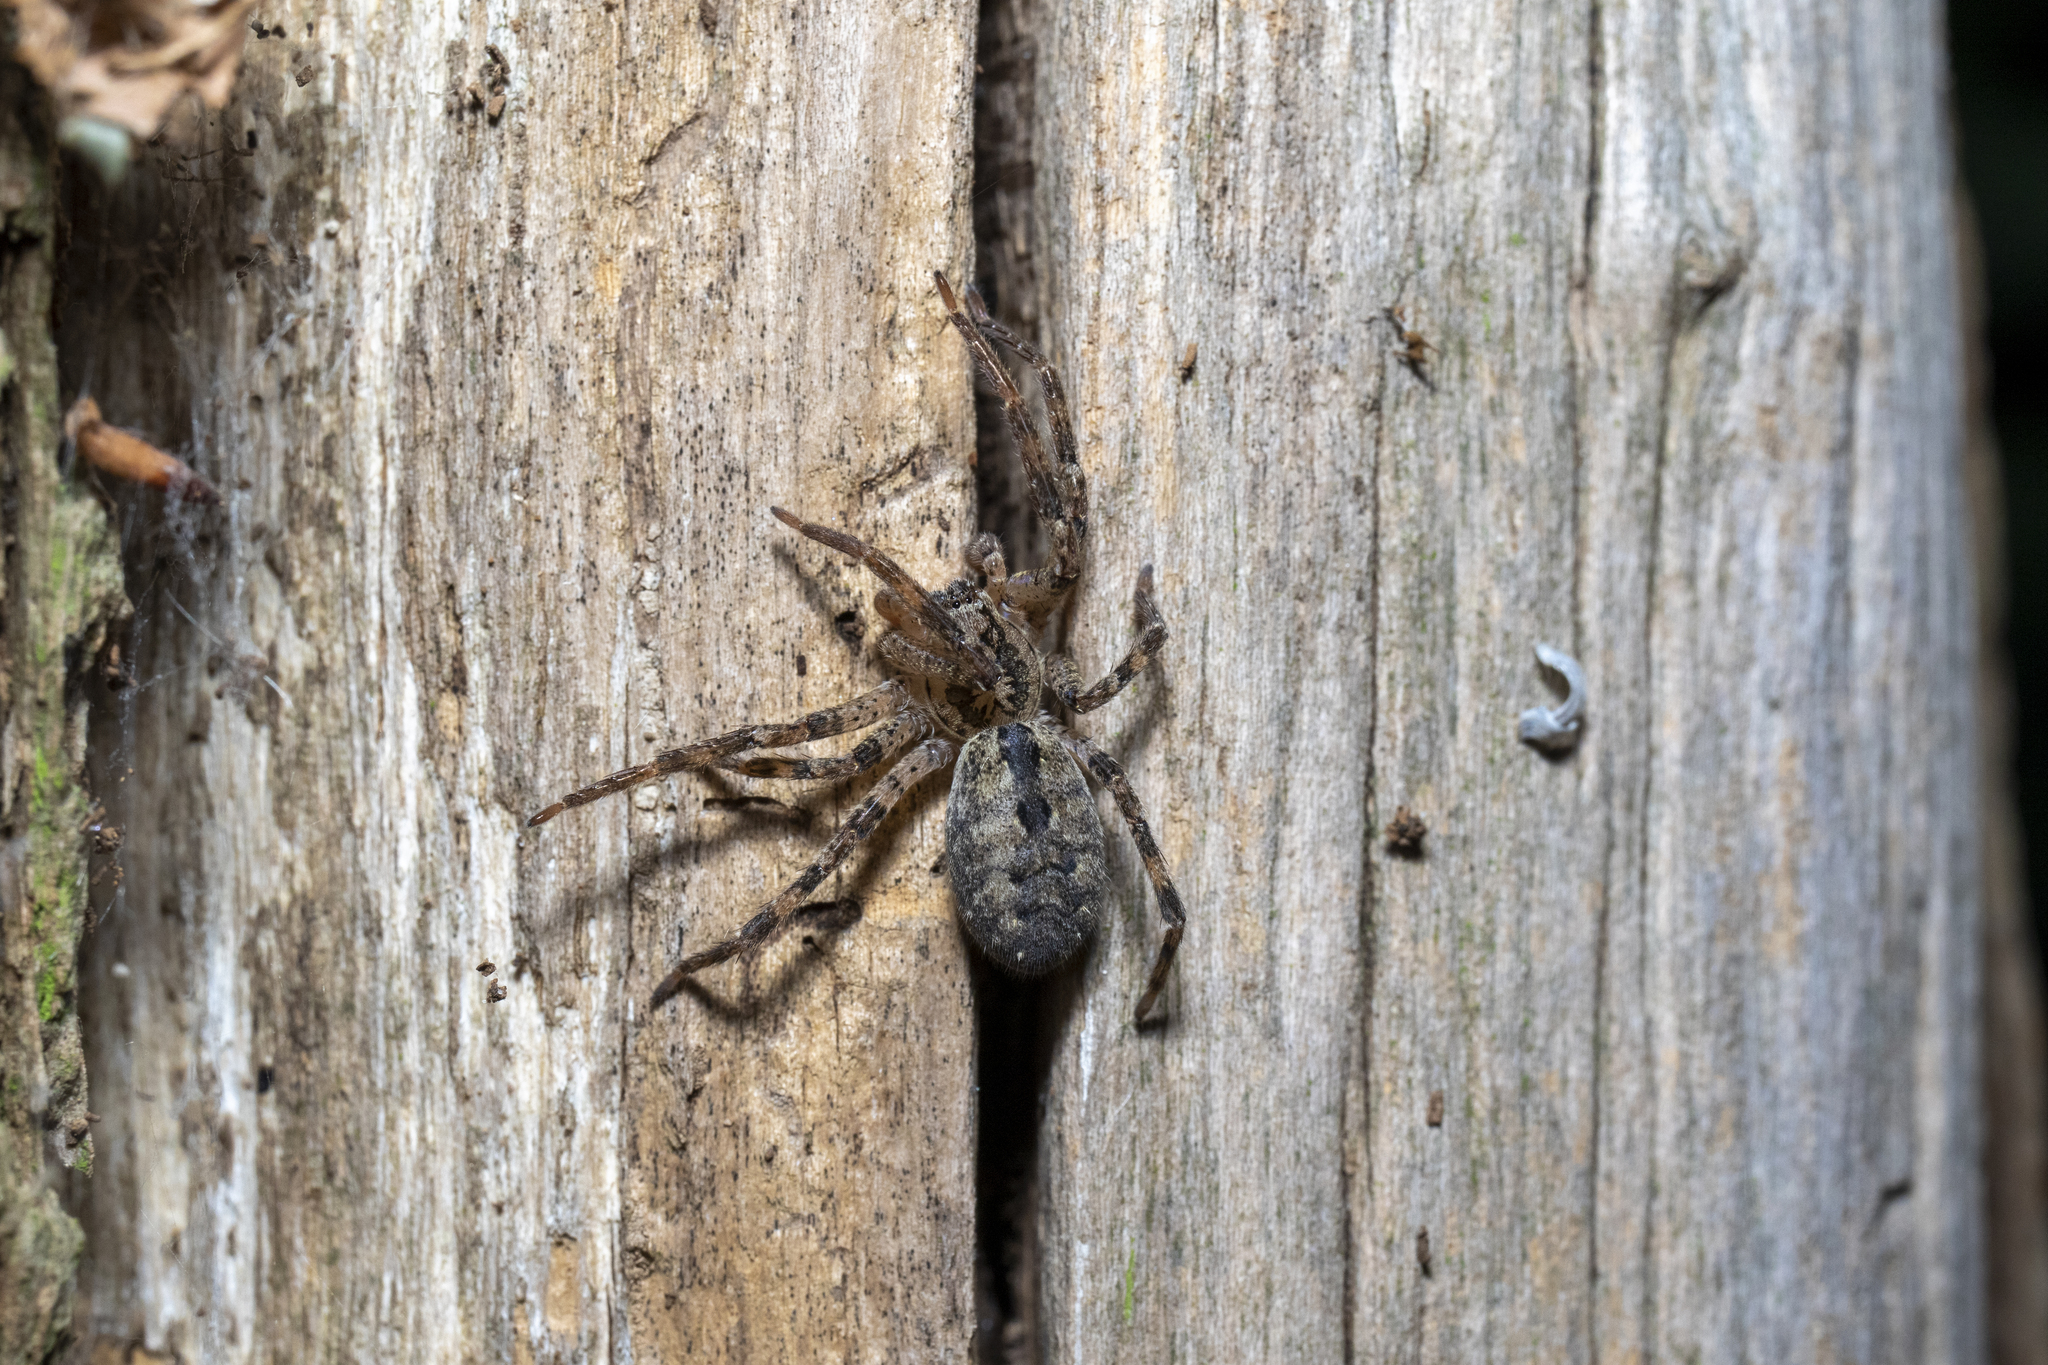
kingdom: Animalia
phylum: Arthropoda
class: Arachnida
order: Araneae
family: Zoropsidae
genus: Zoropsis
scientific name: Zoropsis spinimana
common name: Zoropsid spider
